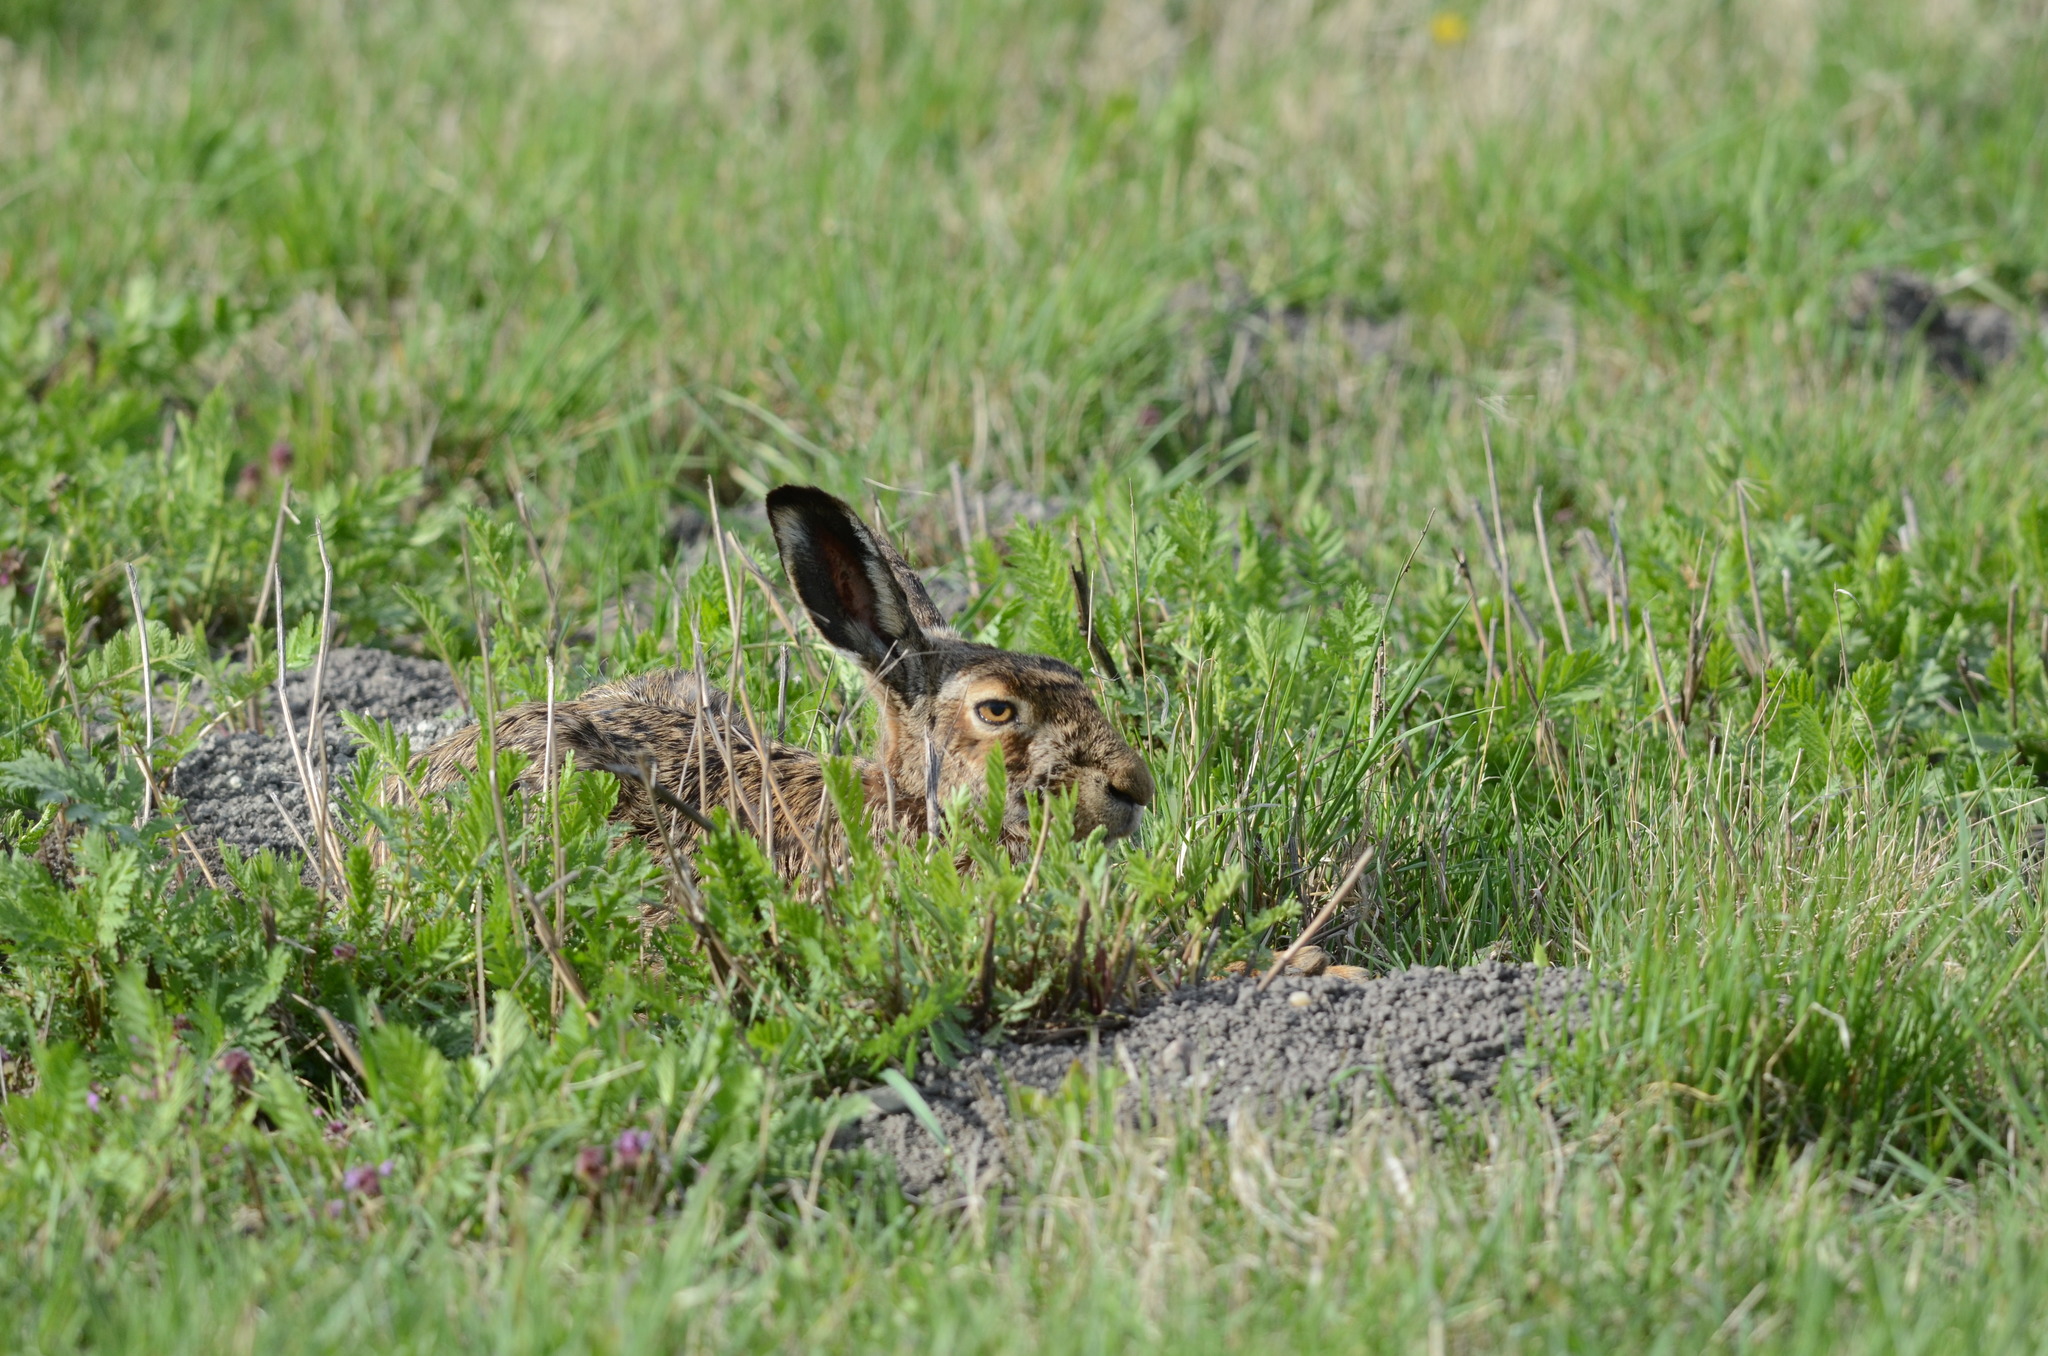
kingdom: Animalia
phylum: Chordata
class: Mammalia
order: Lagomorpha
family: Leporidae
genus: Lepus
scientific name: Lepus europaeus
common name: European hare
